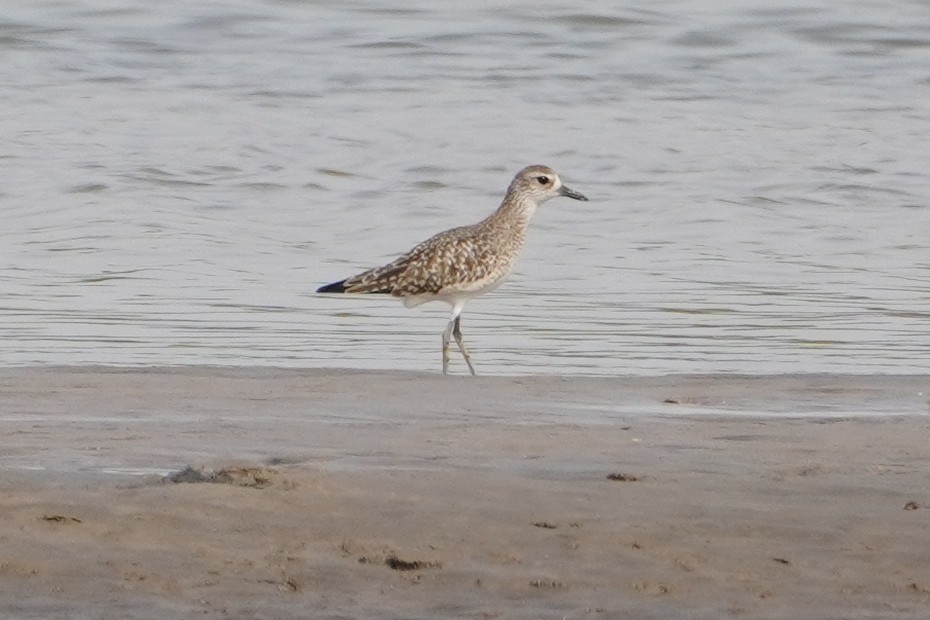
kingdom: Animalia
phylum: Chordata
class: Aves
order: Charadriiformes
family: Charadriidae
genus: Pluvialis
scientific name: Pluvialis squatarola
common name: Grey plover
